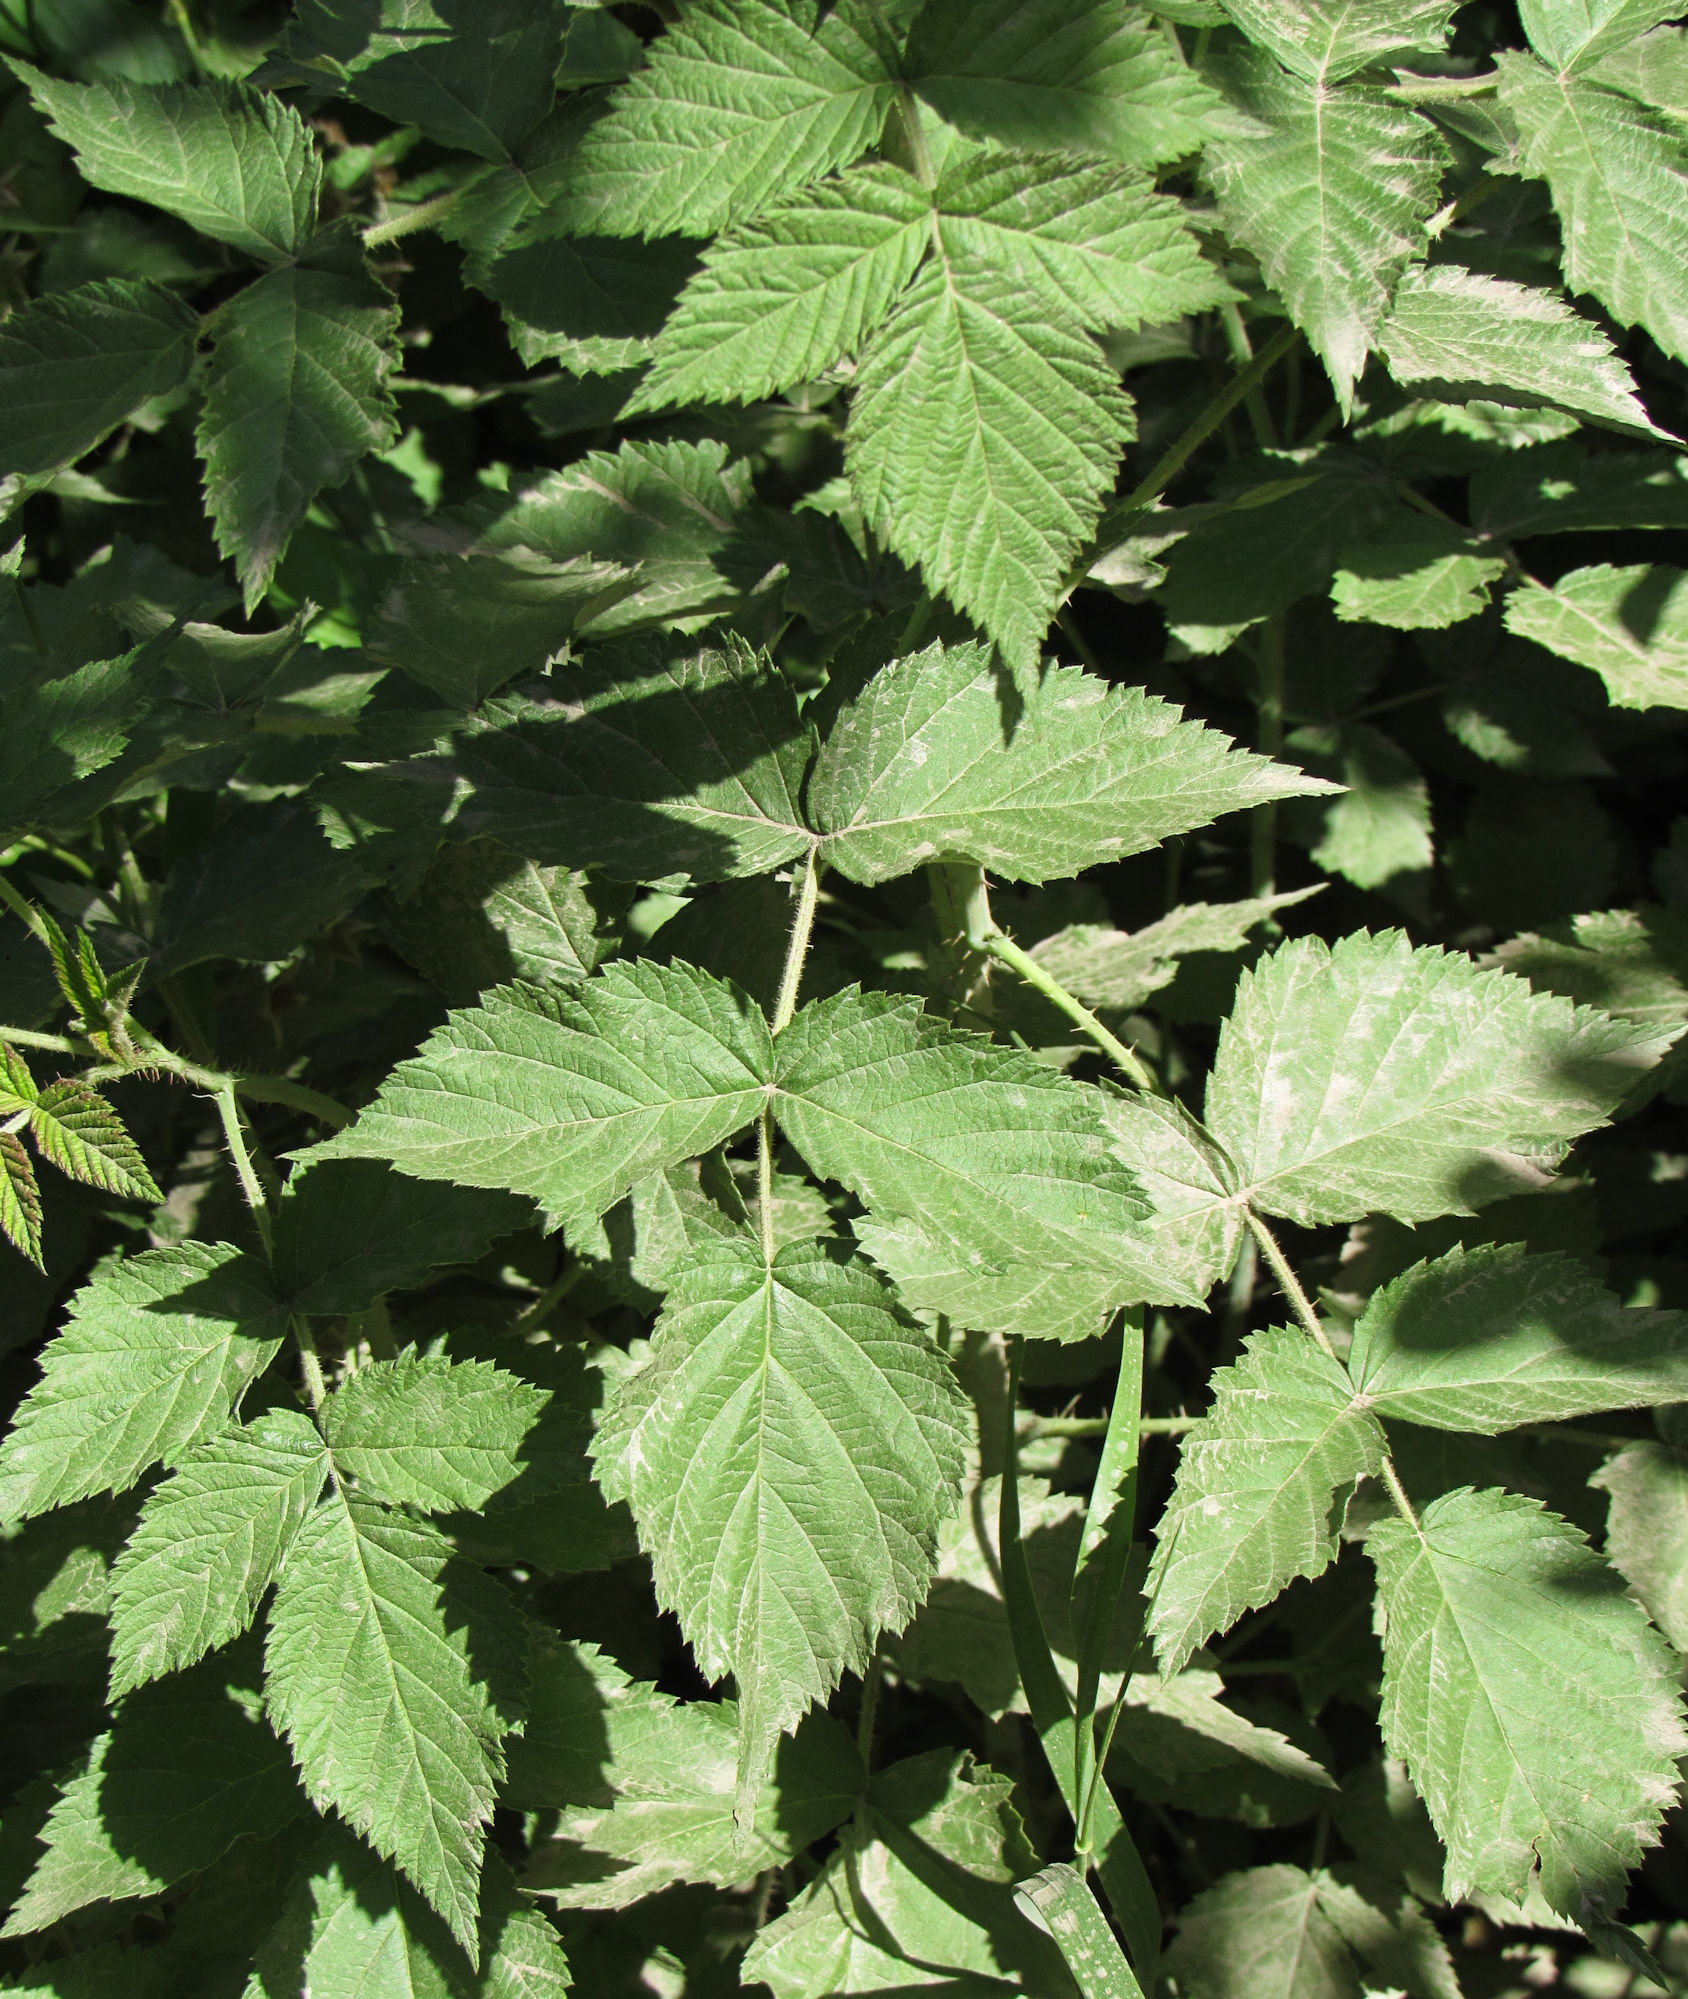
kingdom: Plantae
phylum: Tracheophyta
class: Magnoliopsida
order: Rosales
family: Rosaceae
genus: Rubus
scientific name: Rubus idaeus
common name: Raspberry
